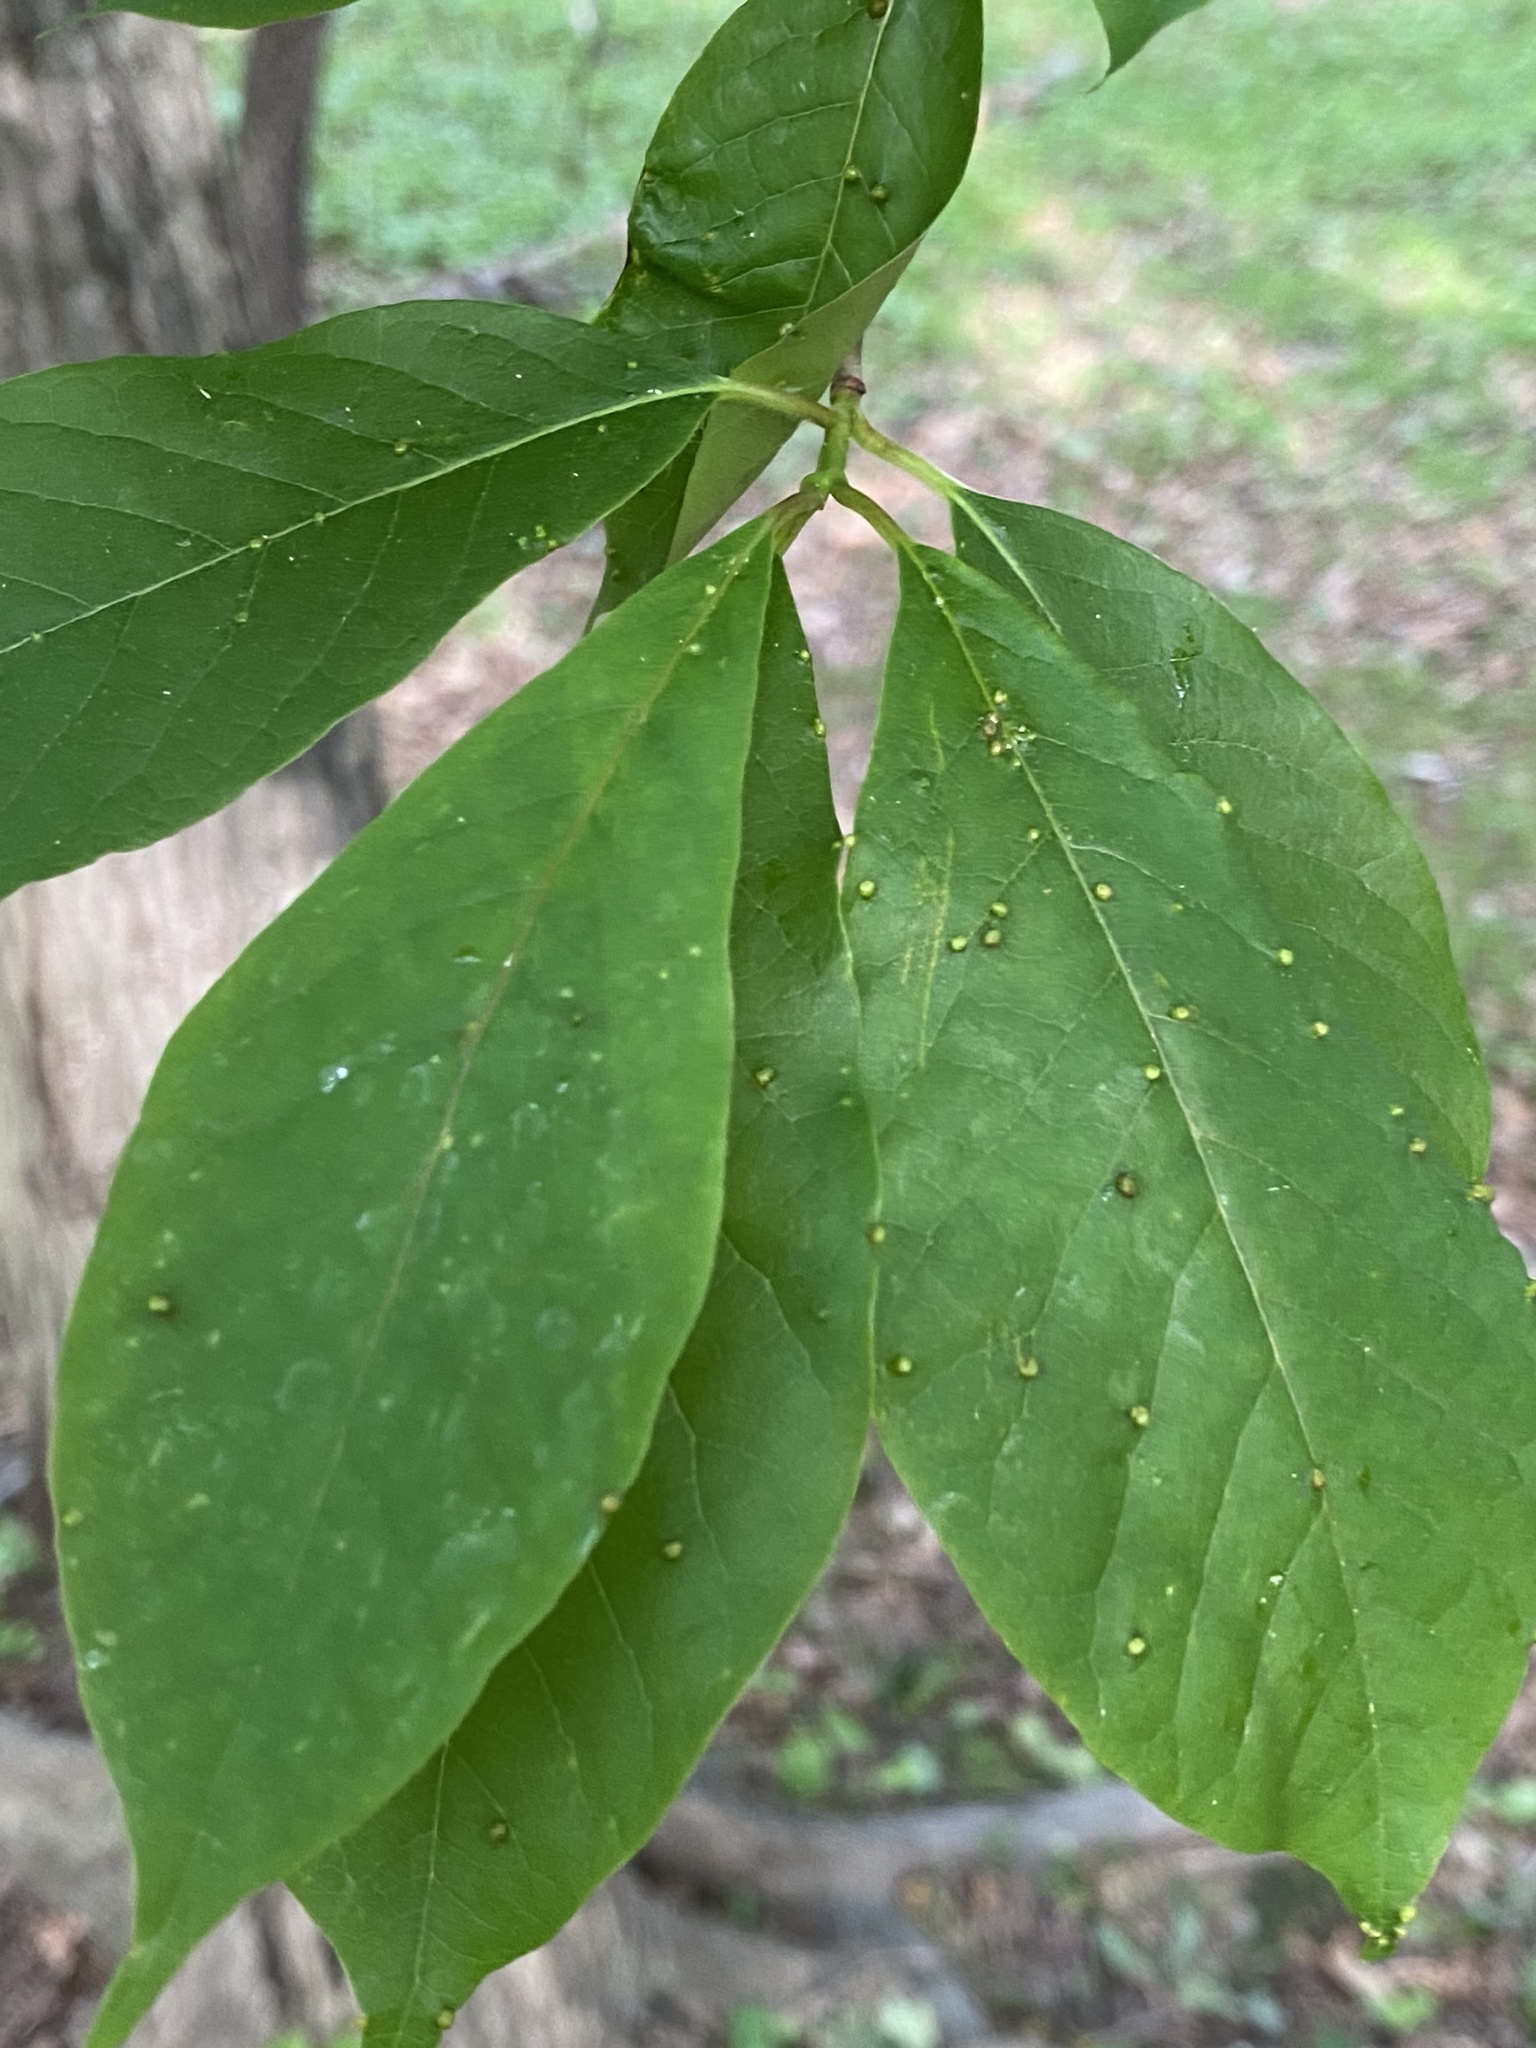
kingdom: Plantae
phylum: Tracheophyta
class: Magnoliopsida
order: Cornales
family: Nyssaceae
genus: Nyssa
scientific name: Nyssa sylvatica
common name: Black tupelo
